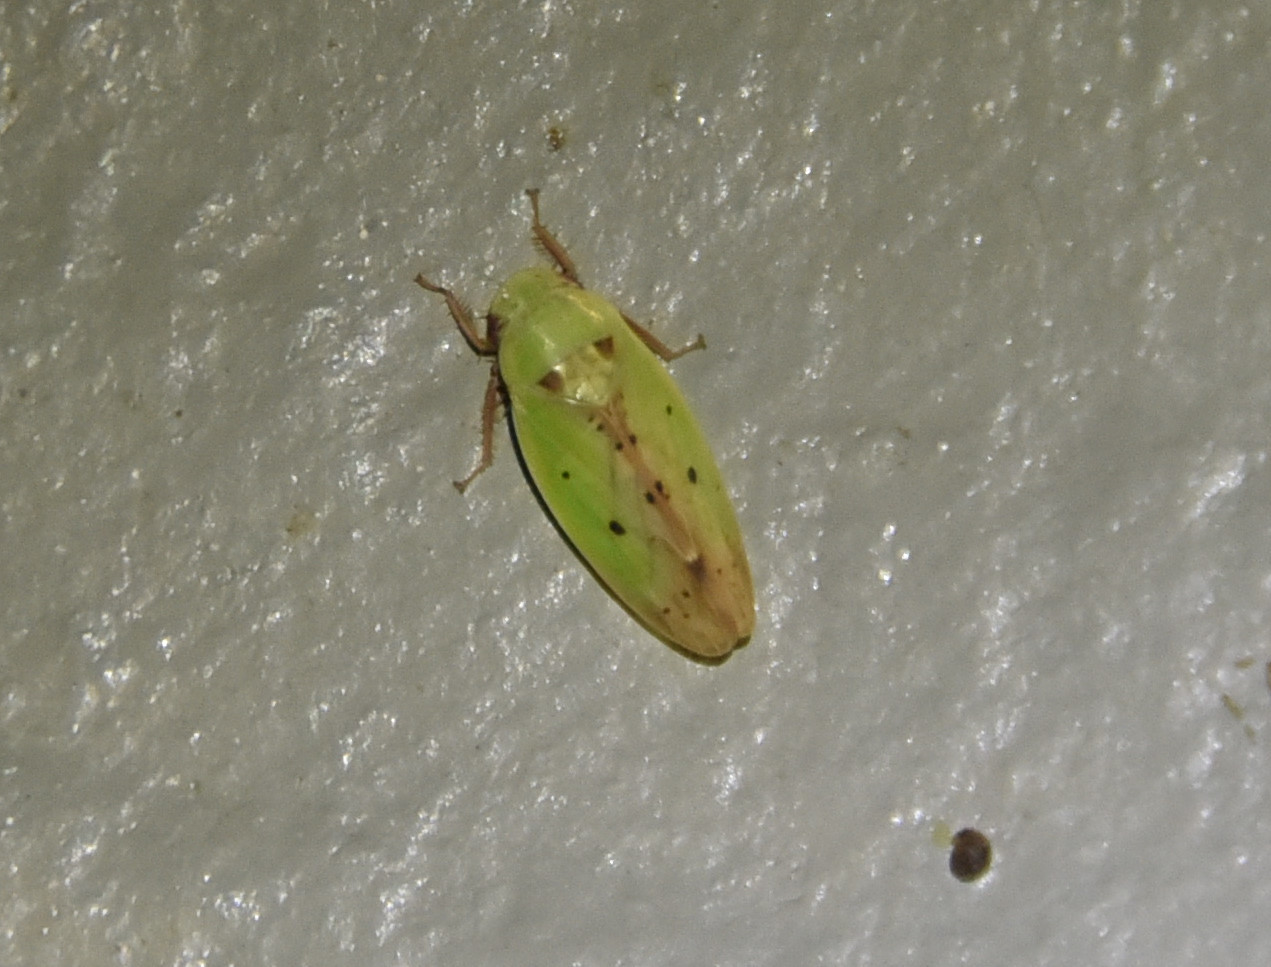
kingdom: Animalia
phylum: Arthropoda
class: Insecta
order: Hemiptera
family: Cicadellidae
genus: Ponana
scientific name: Ponana
